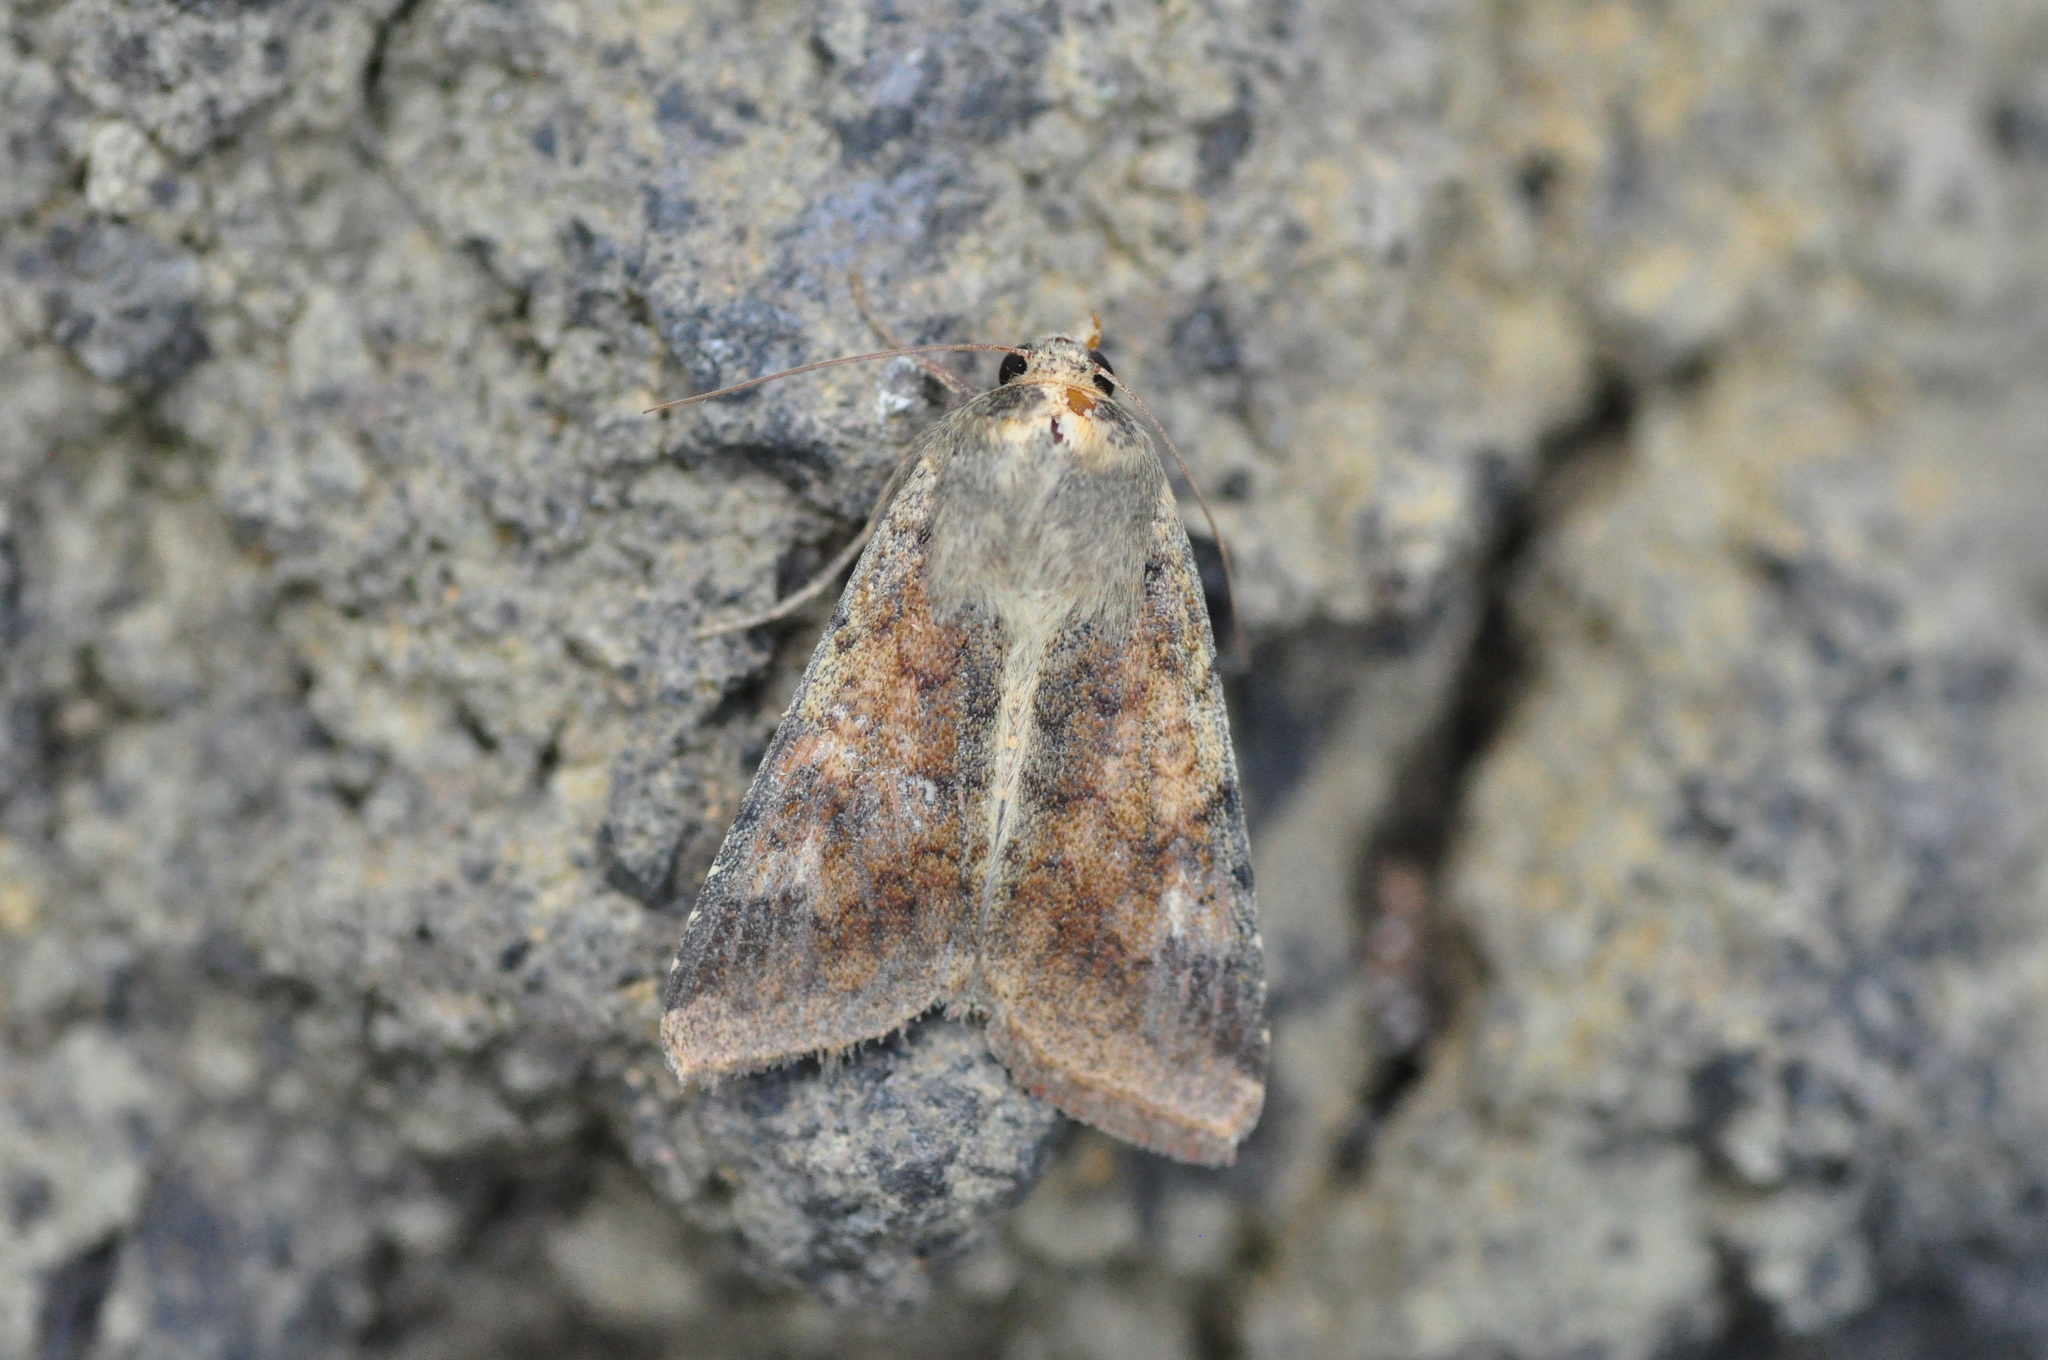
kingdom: Animalia
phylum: Arthropoda
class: Insecta
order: Lepidoptera
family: Noctuidae
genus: Helicoverpa
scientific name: Helicoverpa armigera
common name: Cotton bollworm
